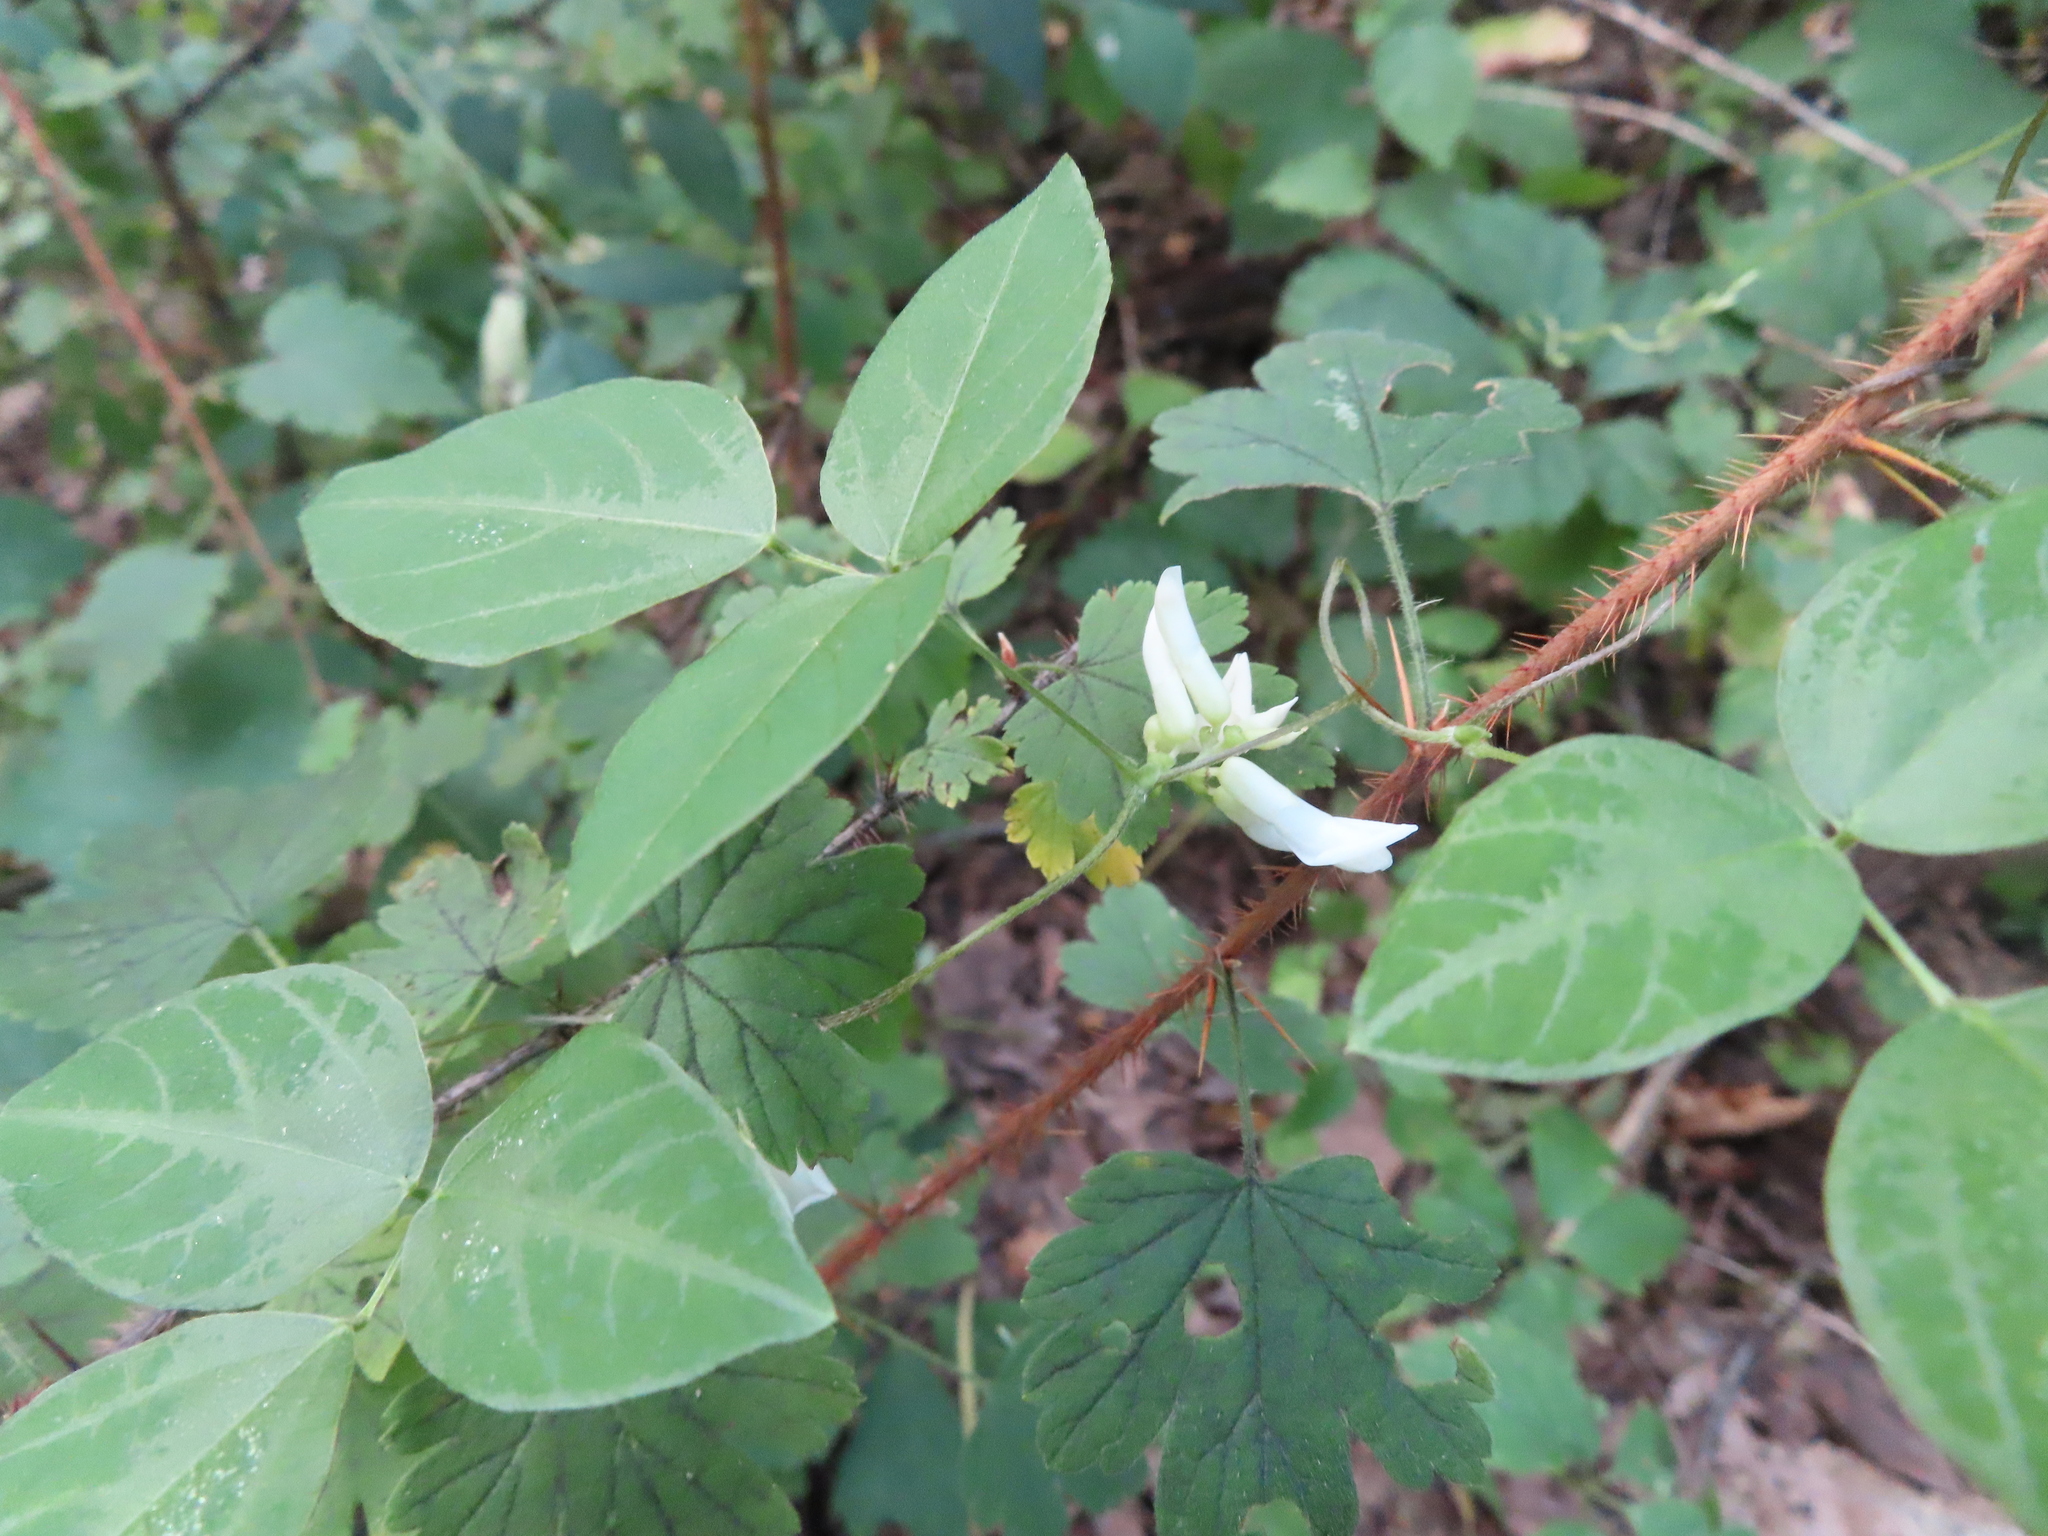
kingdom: Plantae
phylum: Tracheophyta
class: Magnoliopsida
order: Fabales
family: Fabaceae
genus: Amphicarpaea
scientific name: Amphicarpaea bracteata
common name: American hog peanut
